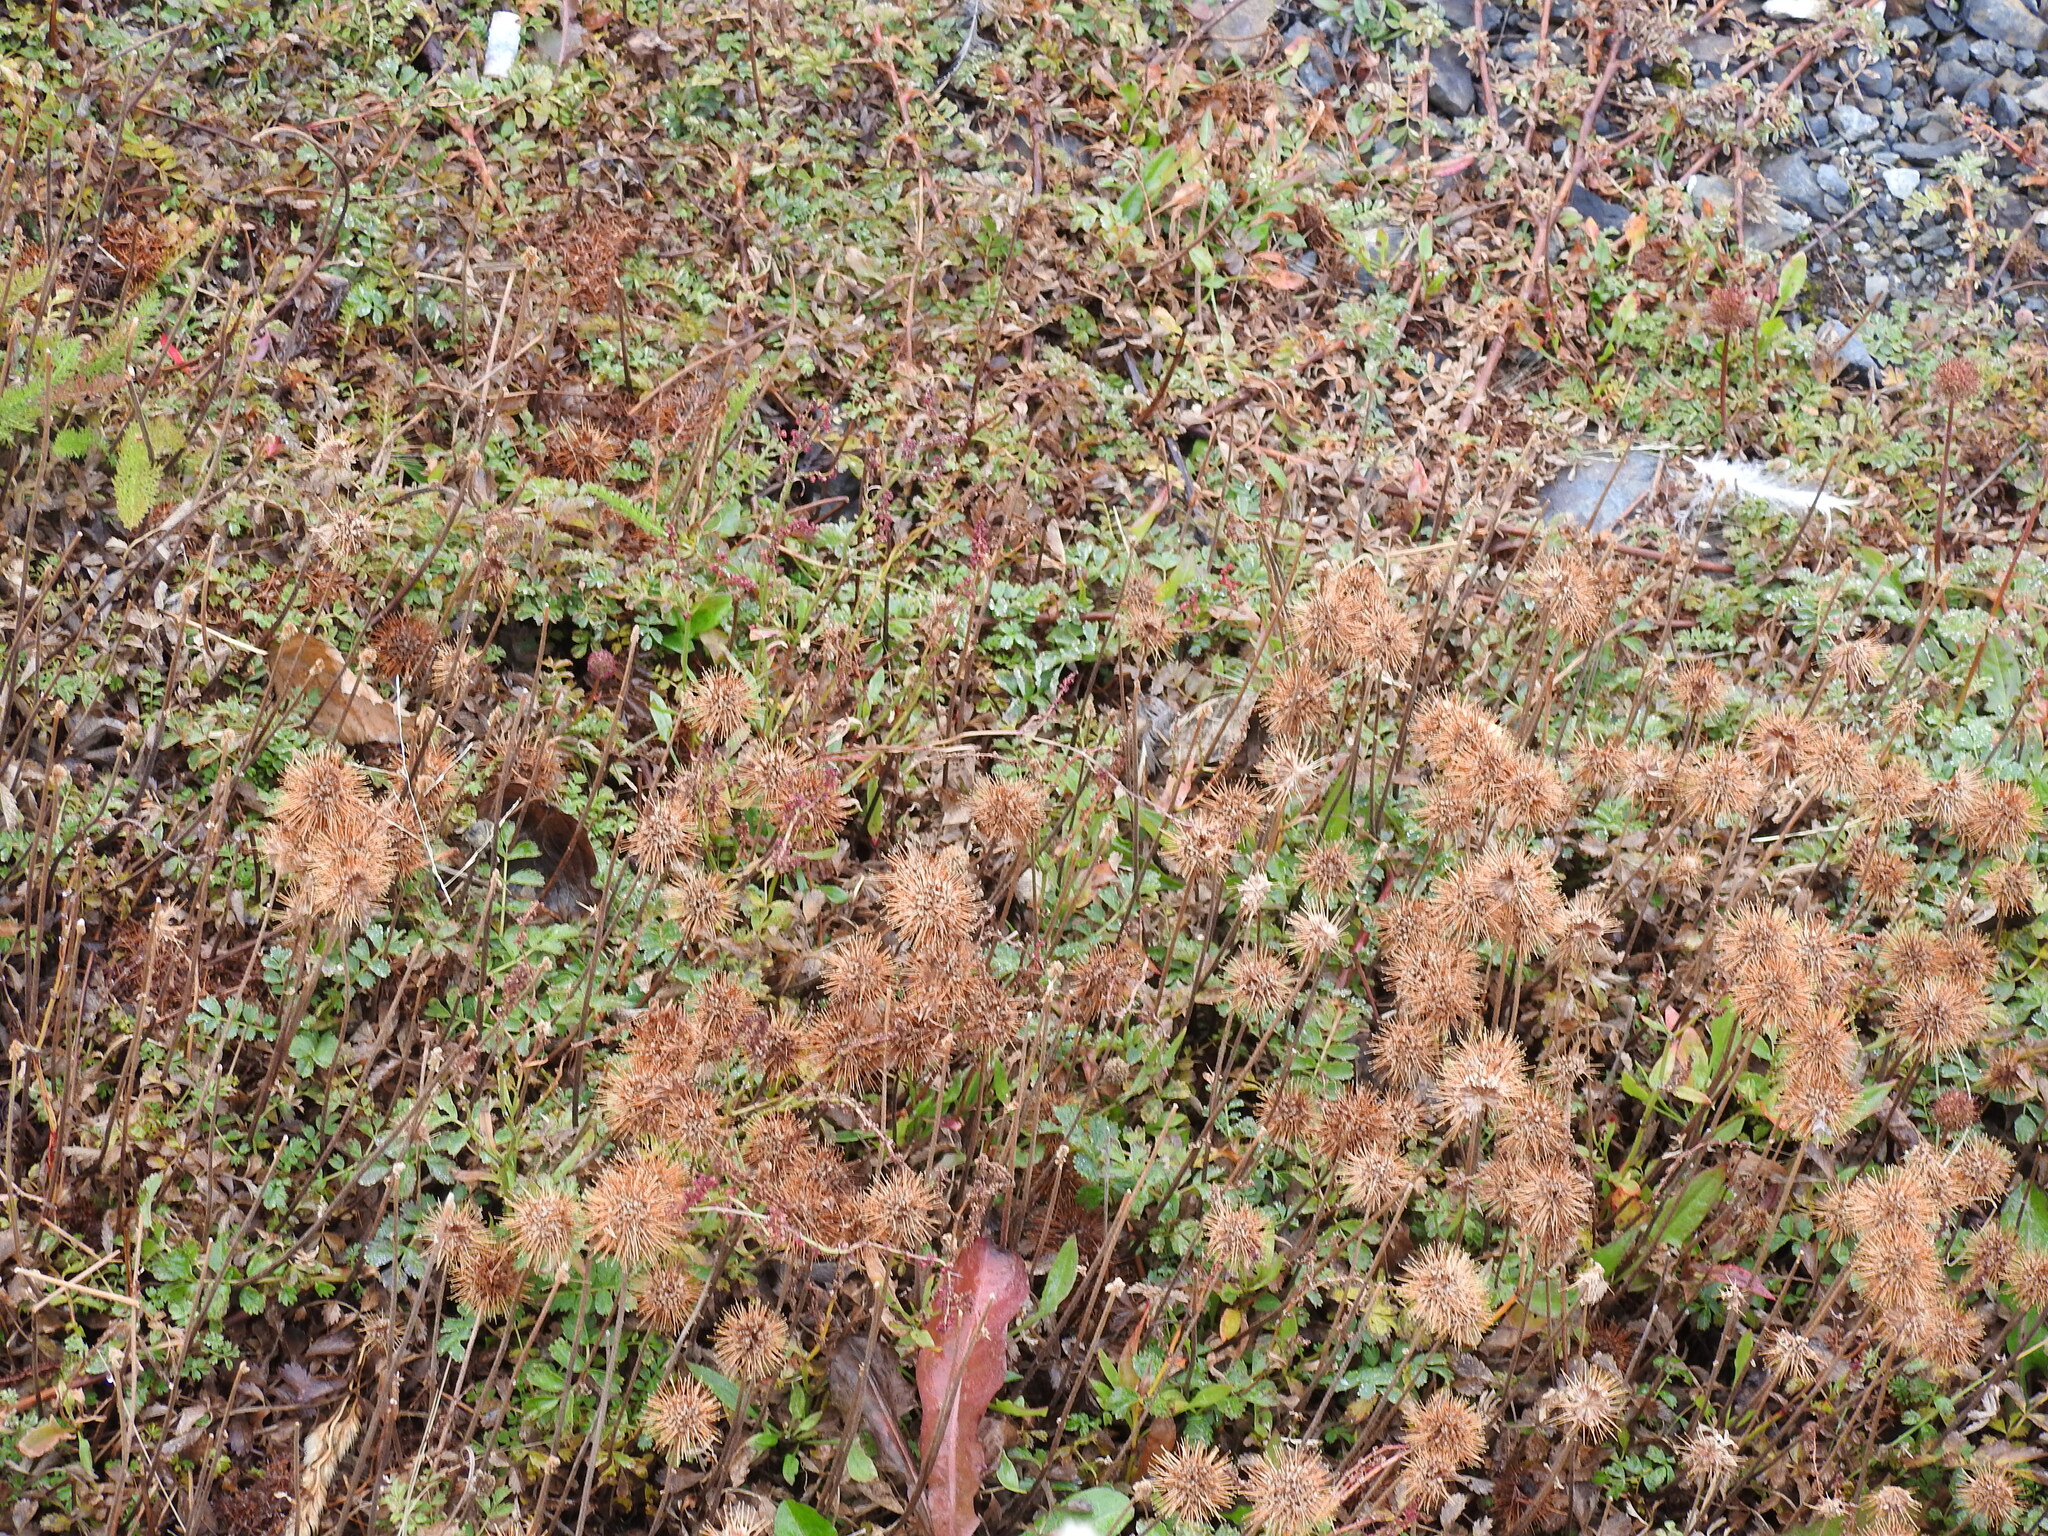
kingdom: Plantae
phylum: Tracheophyta
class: Magnoliopsida
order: Rosales
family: Rosaceae
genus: Acaena
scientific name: Acaena magellanica
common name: New zealand burr
